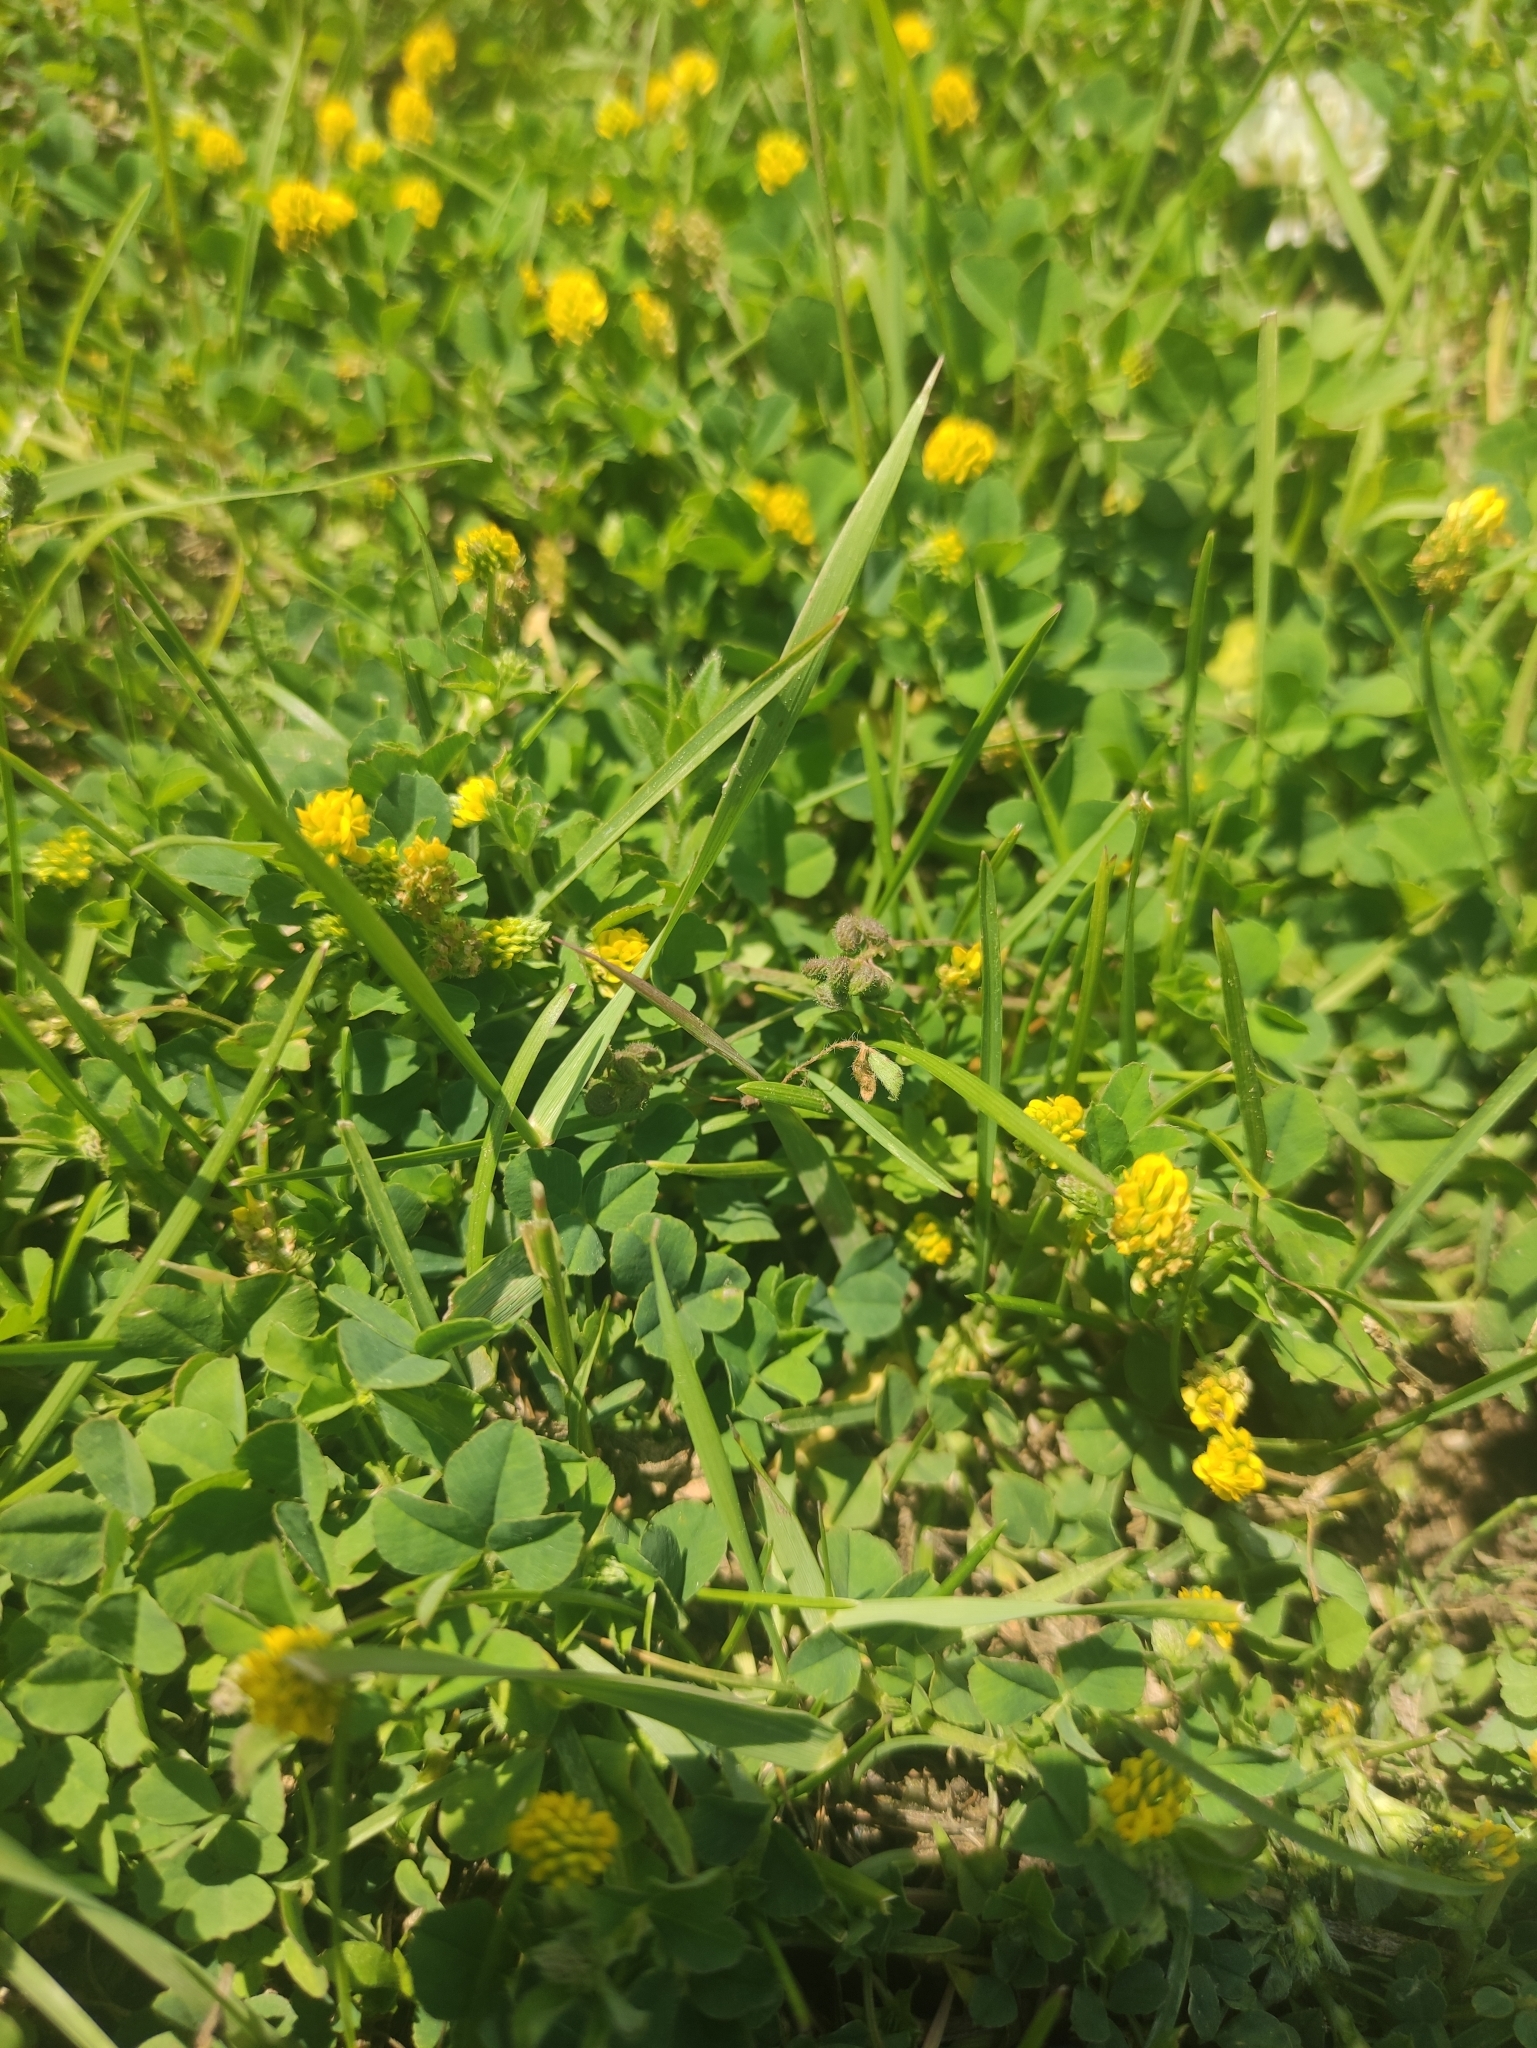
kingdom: Plantae
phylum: Tracheophyta
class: Magnoliopsida
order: Fabales
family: Fabaceae
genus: Medicago
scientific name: Medicago lupulina
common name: Black medick
